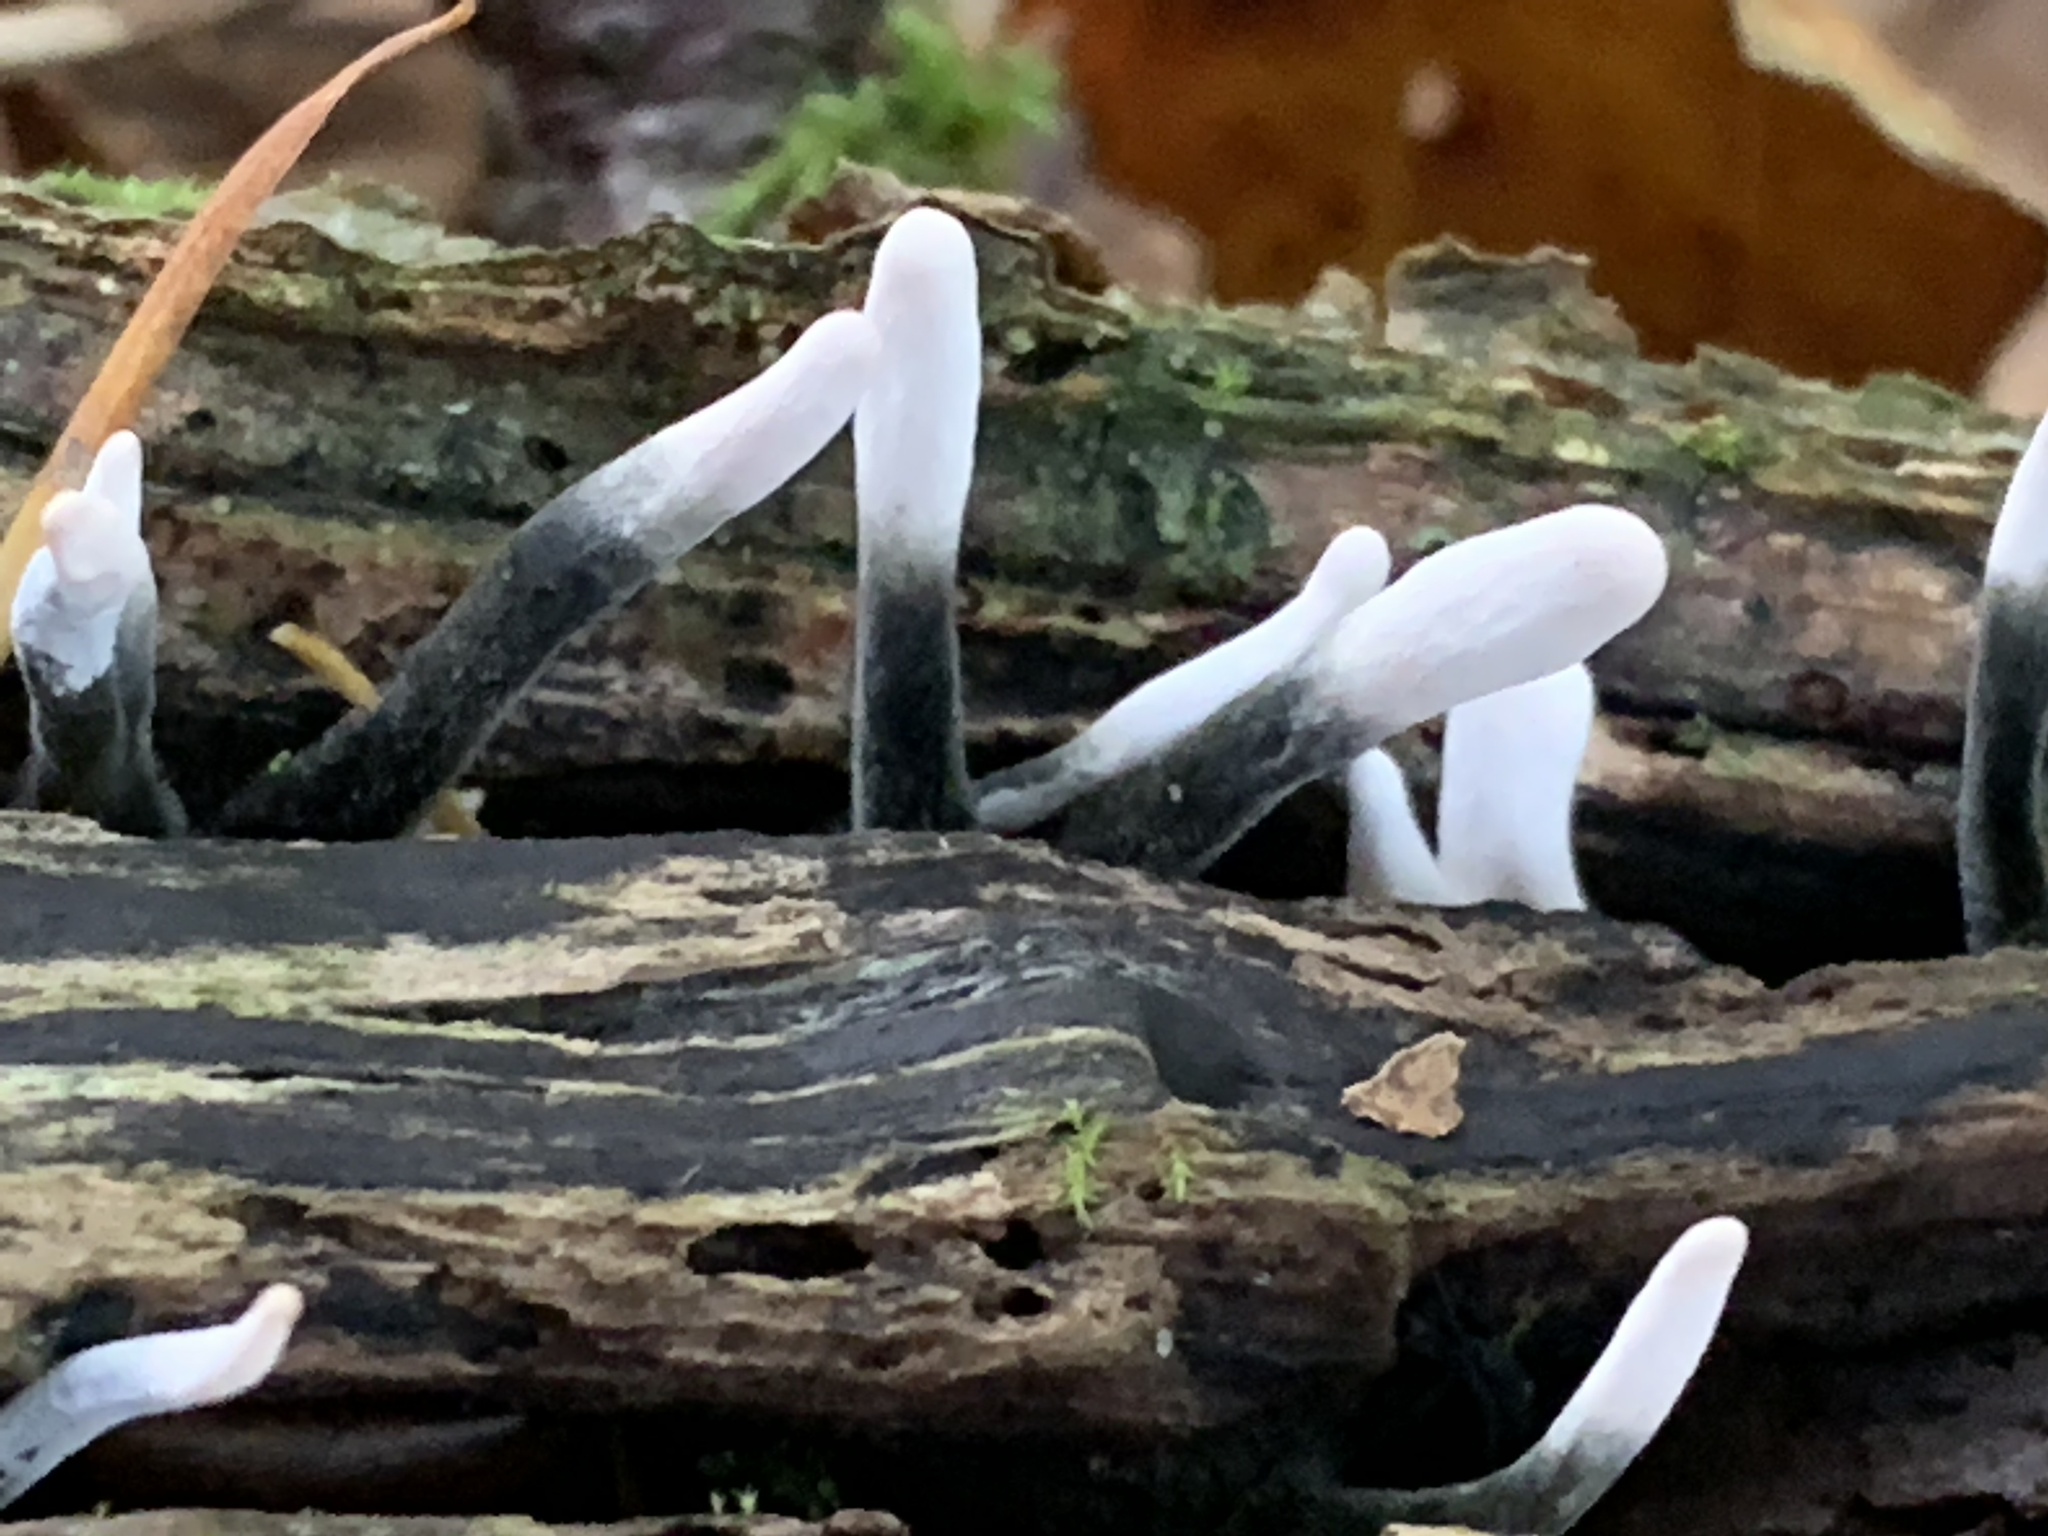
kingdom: Fungi
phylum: Ascomycota
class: Sordariomycetes
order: Xylariales
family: Xylariaceae
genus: Xylaria
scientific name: Xylaria hypoxylon
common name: Candle-snuff fungus
